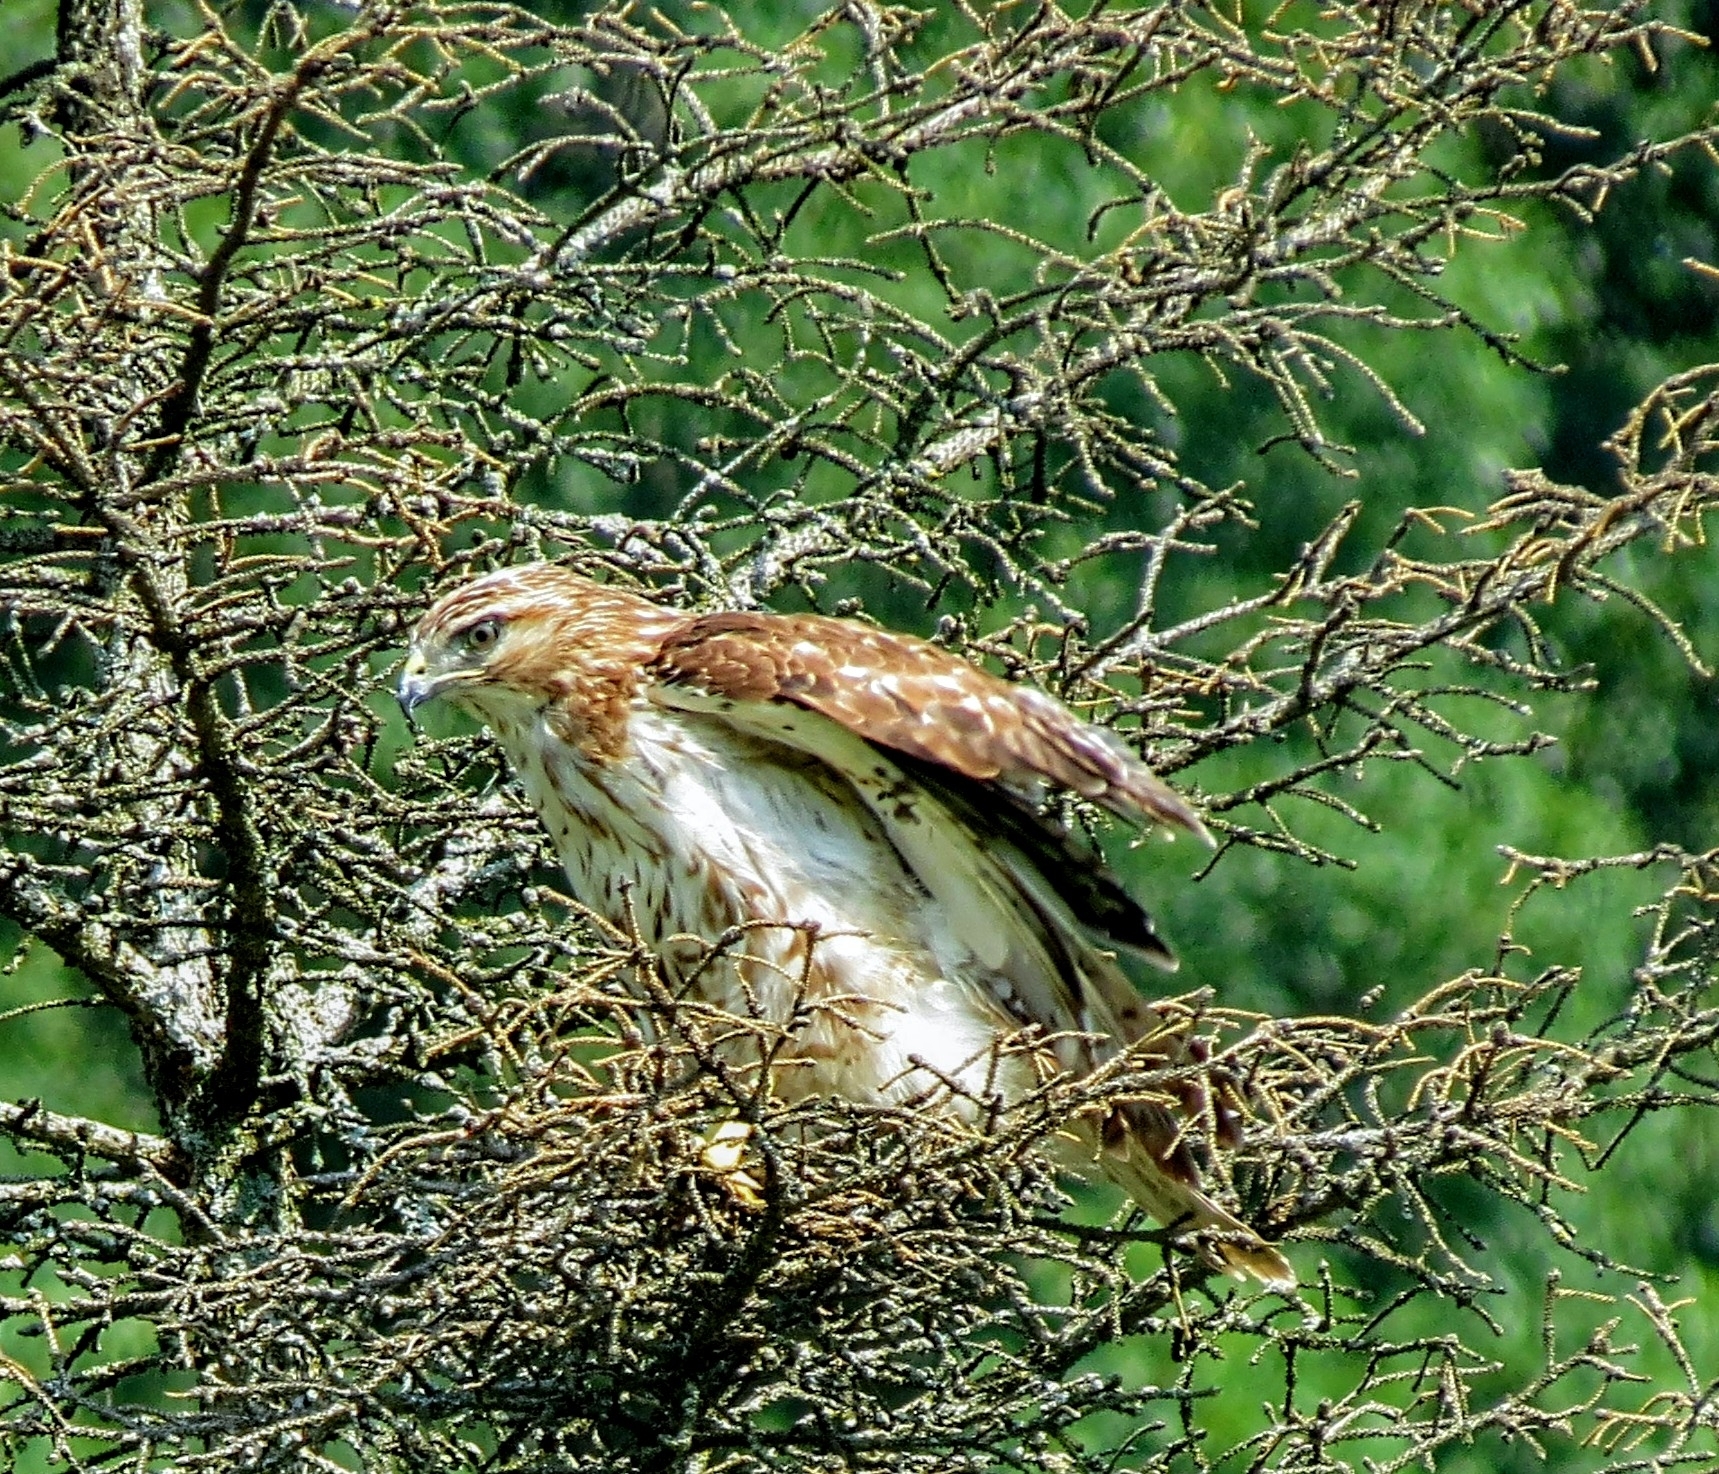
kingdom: Animalia
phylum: Chordata
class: Aves
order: Accipitriformes
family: Accipitridae
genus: Buteo
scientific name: Buteo jamaicensis
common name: Red-tailed hawk
